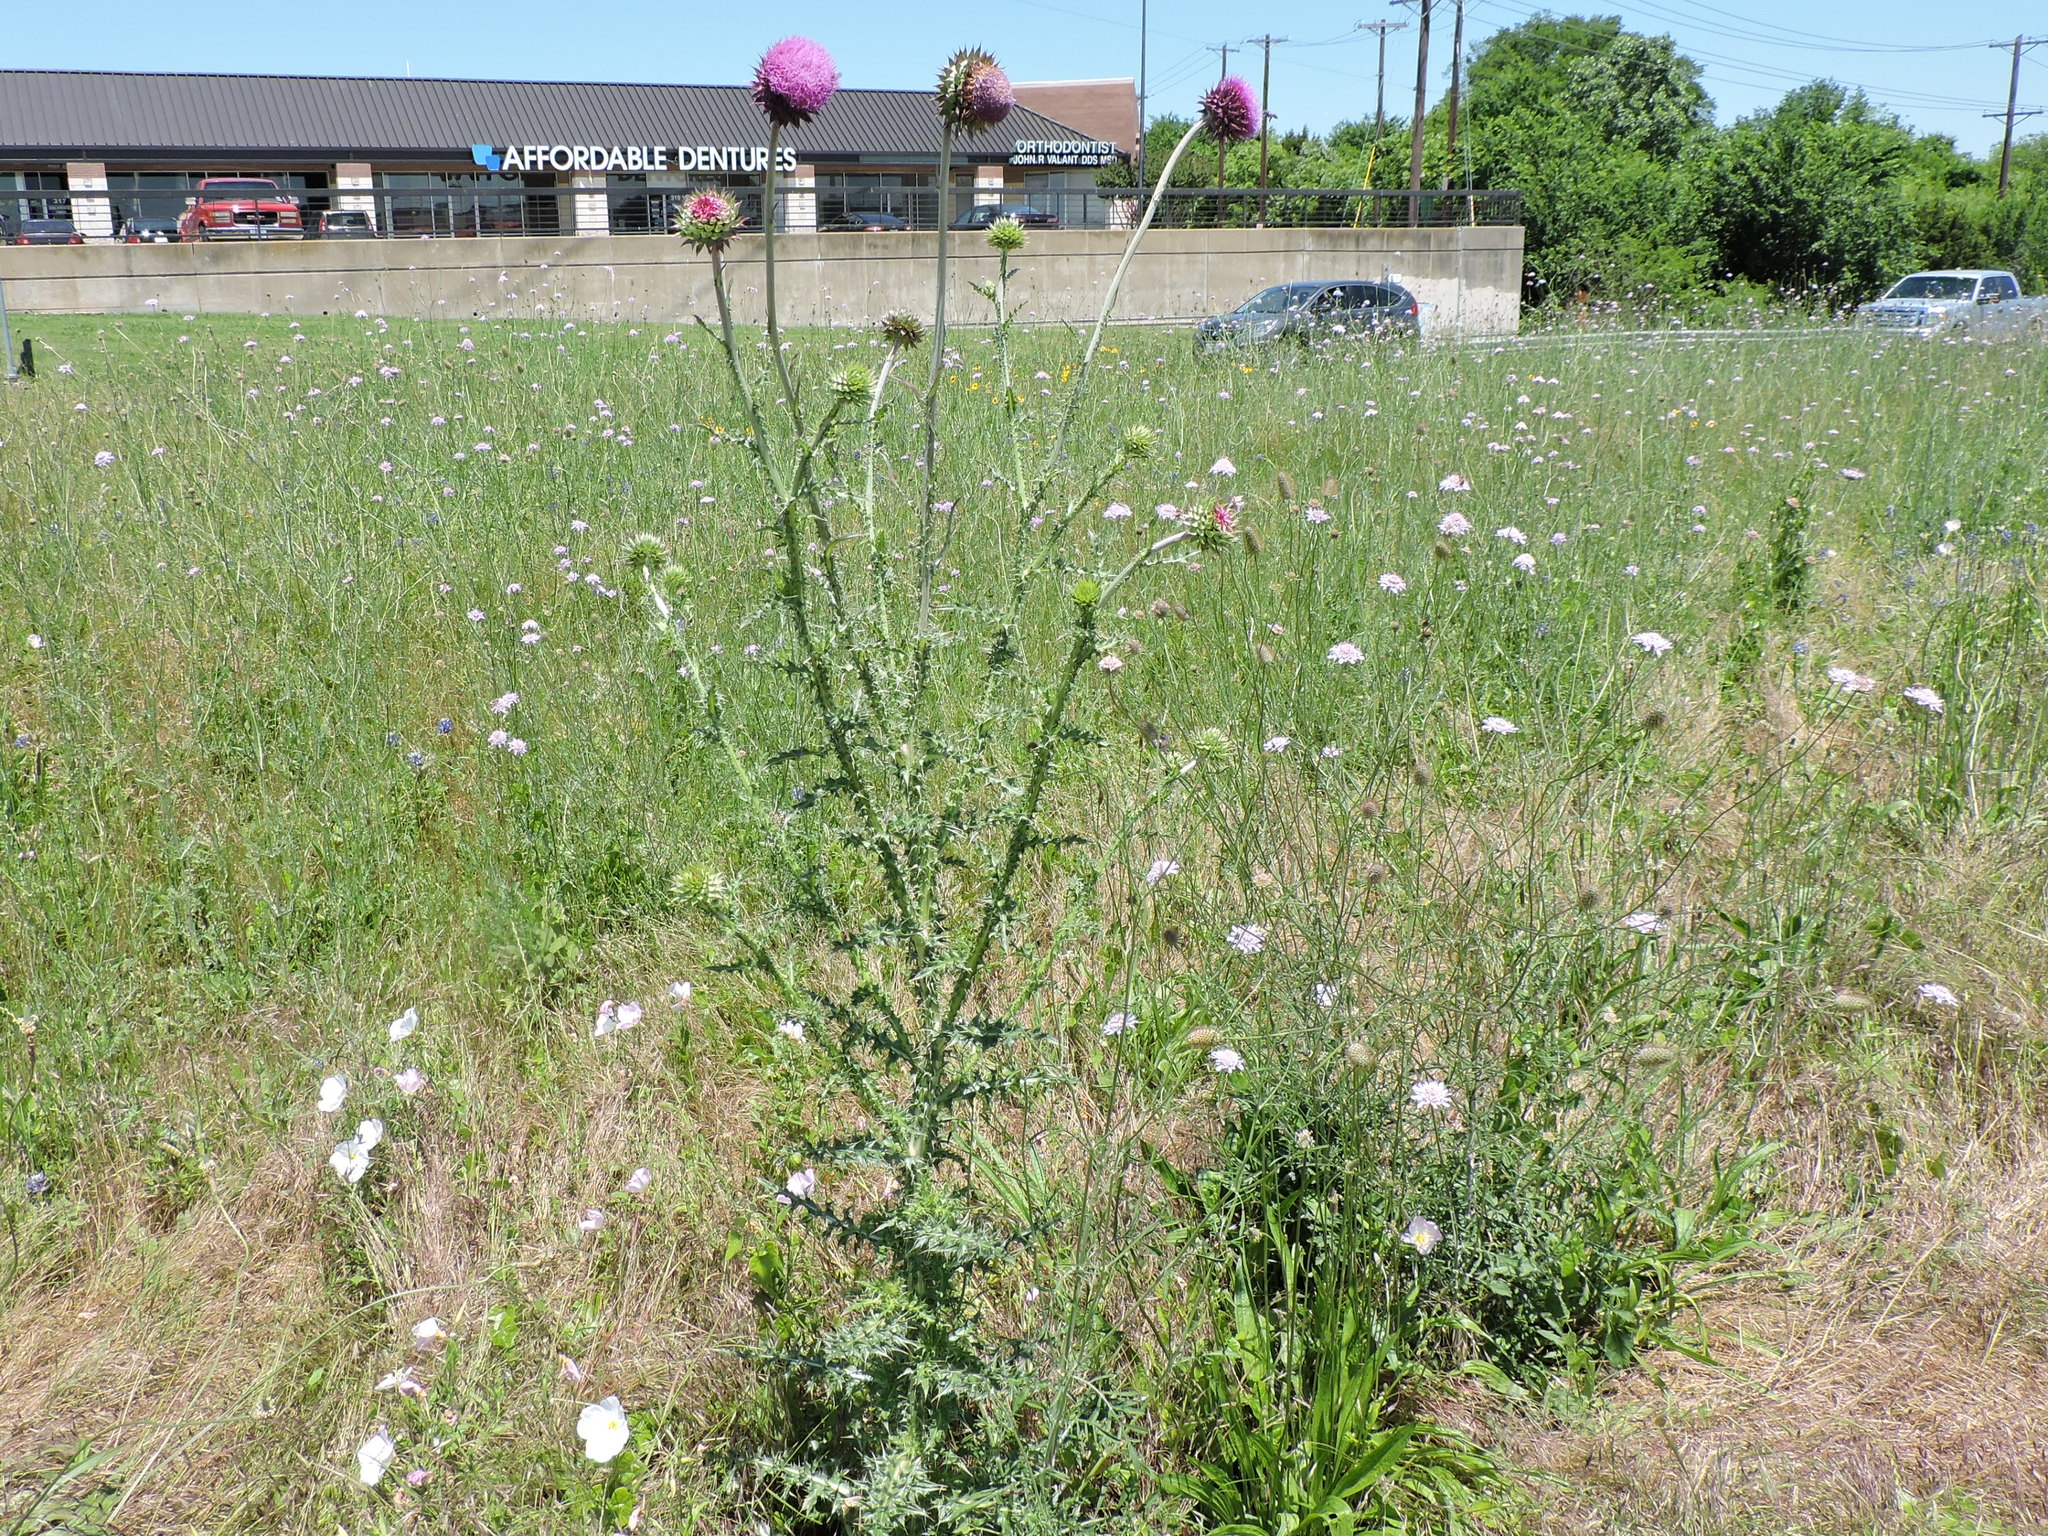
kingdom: Plantae
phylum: Tracheophyta
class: Magnoliopsida
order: Asterales
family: Asteraceae
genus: Carduus
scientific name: Carduus nutans
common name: Musk thistle
